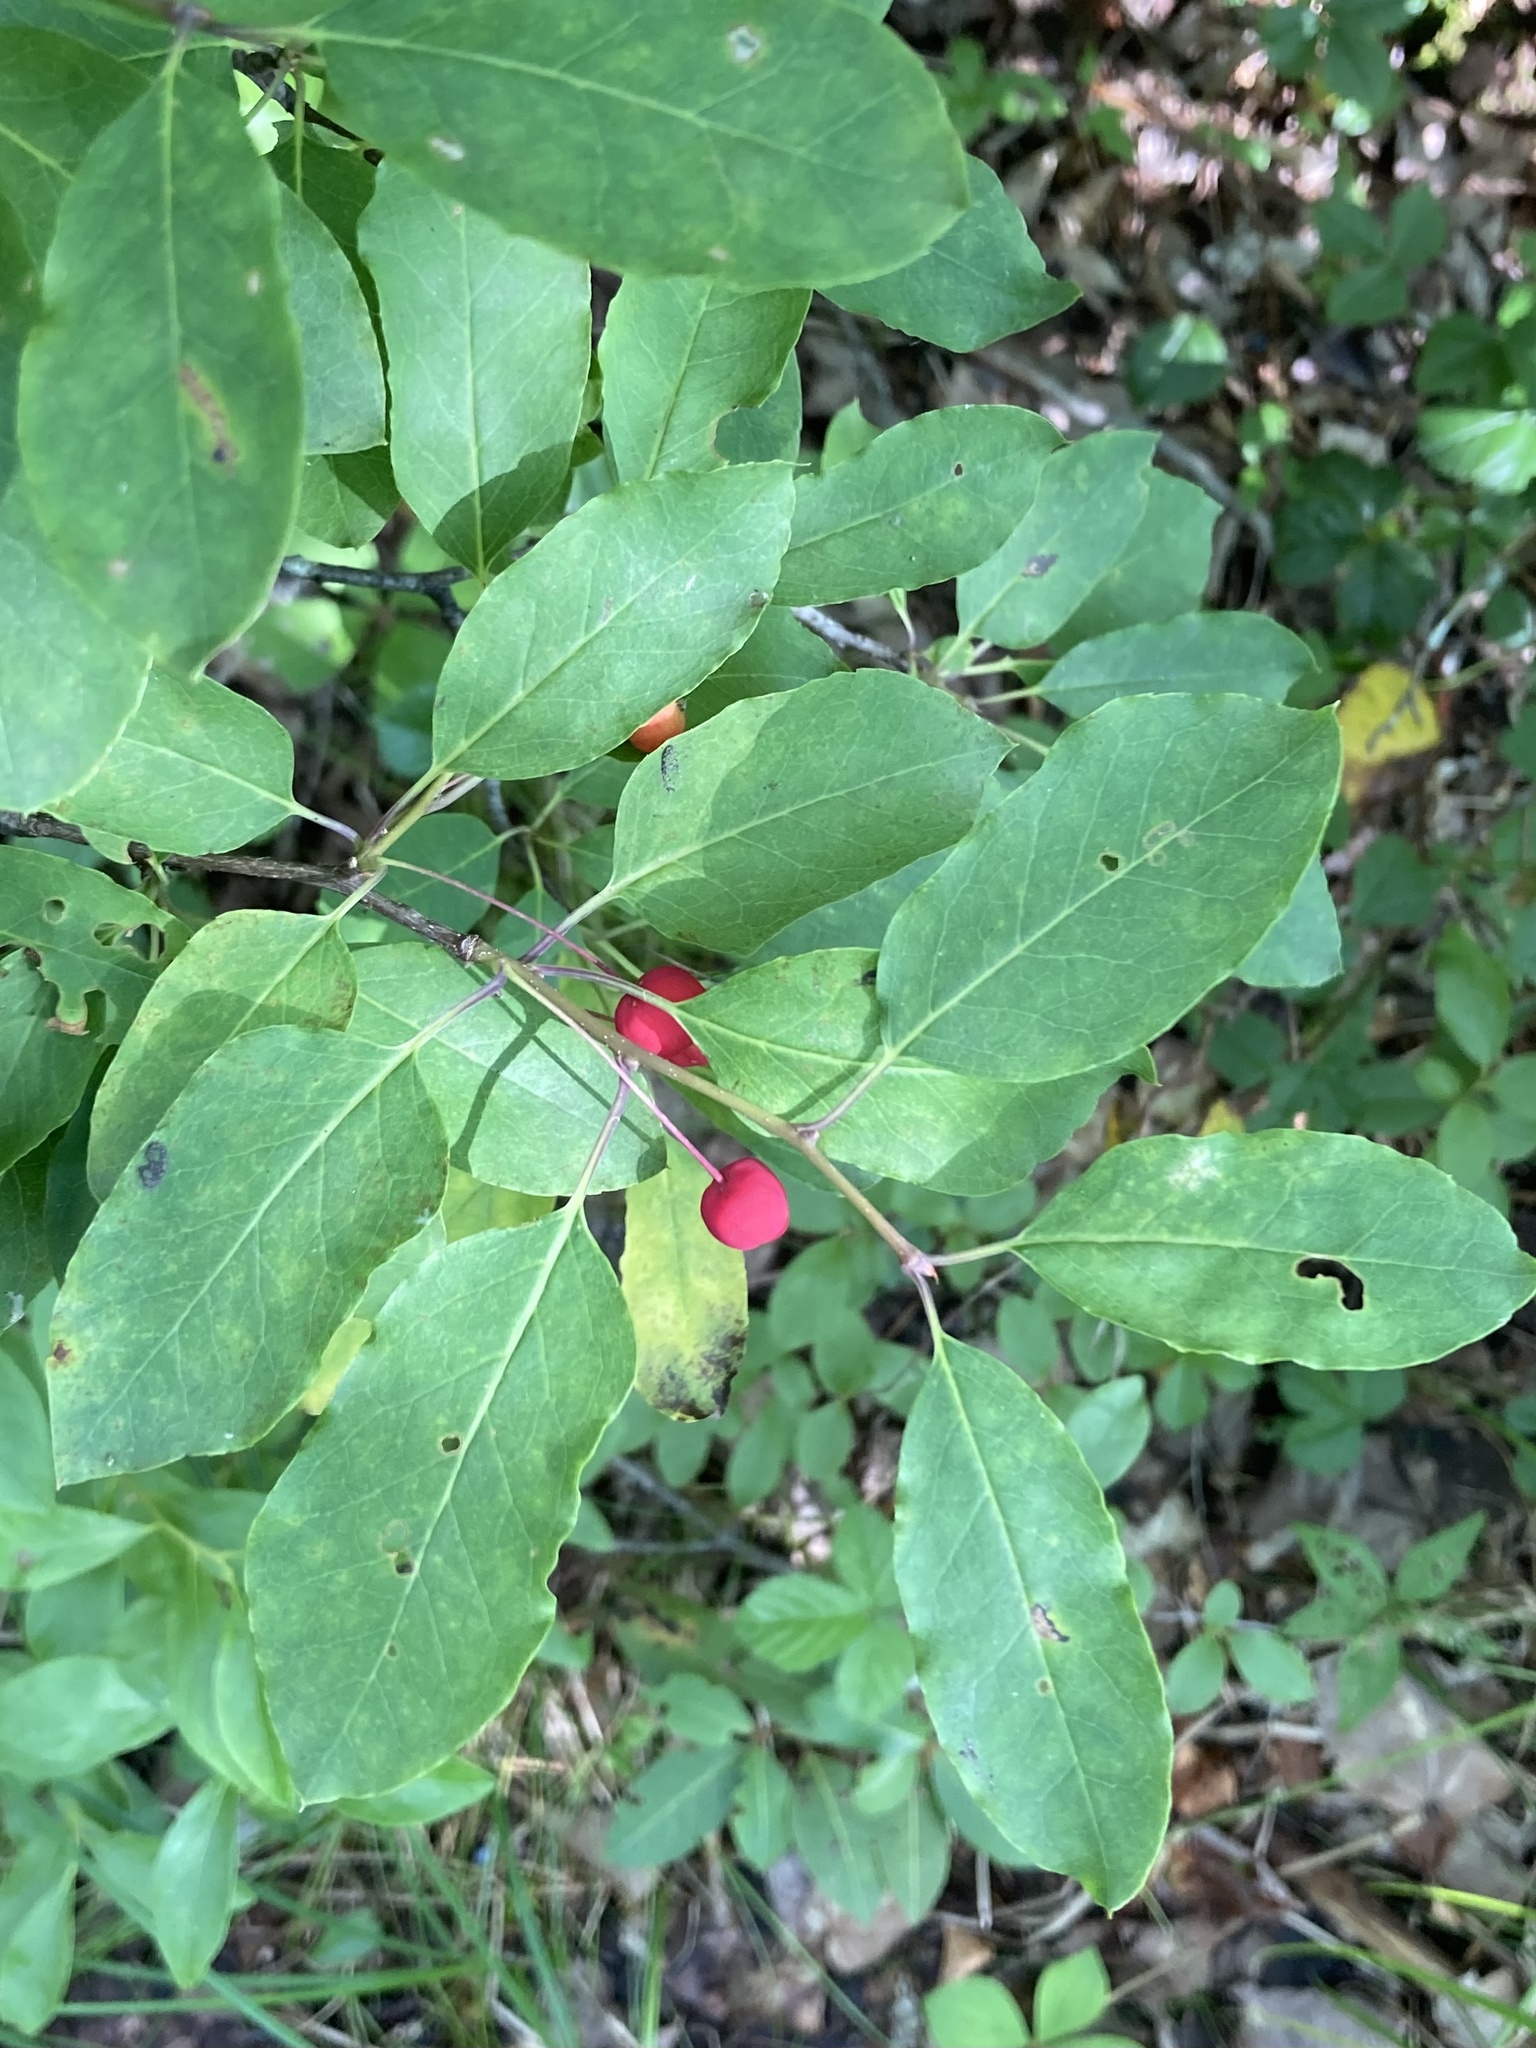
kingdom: Plantae
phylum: Tracheophyta
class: Magnoliopsida
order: Aquifoliales
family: Aquifoliaceae
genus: Ilex
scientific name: Ilex mucronata
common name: Catberry
